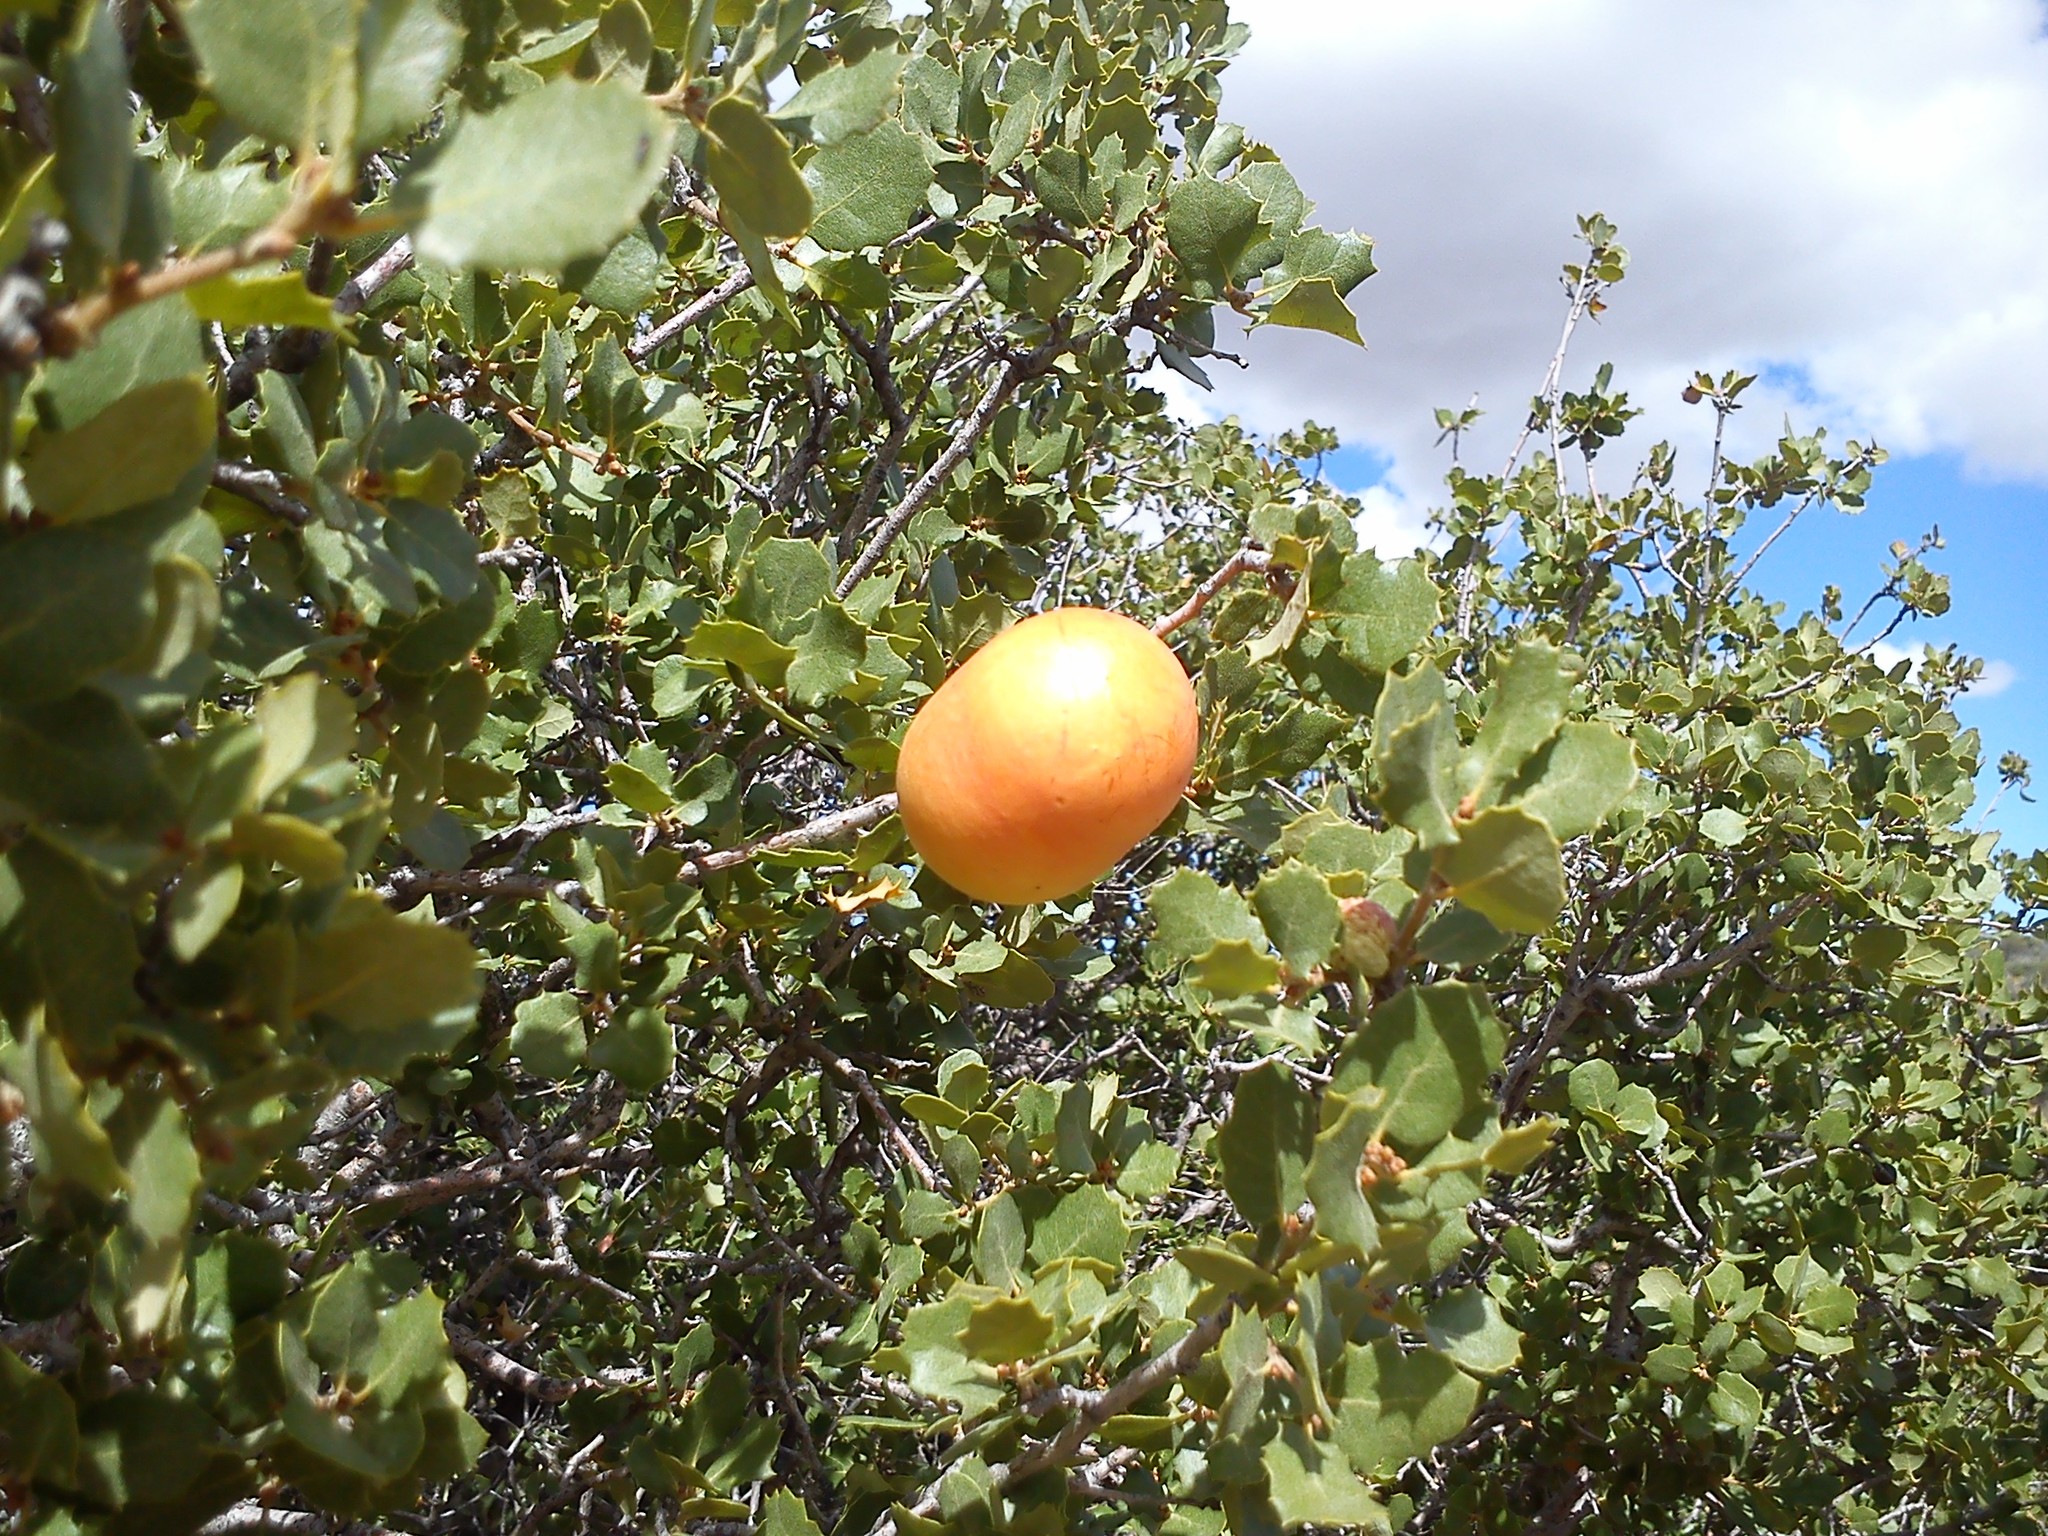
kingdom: Plantae
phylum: Tracheophyta
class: Magnoliopsida
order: Fagales
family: Fagaceae
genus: Quercus
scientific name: Quercus cornelius-mulleri
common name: Muller oak
